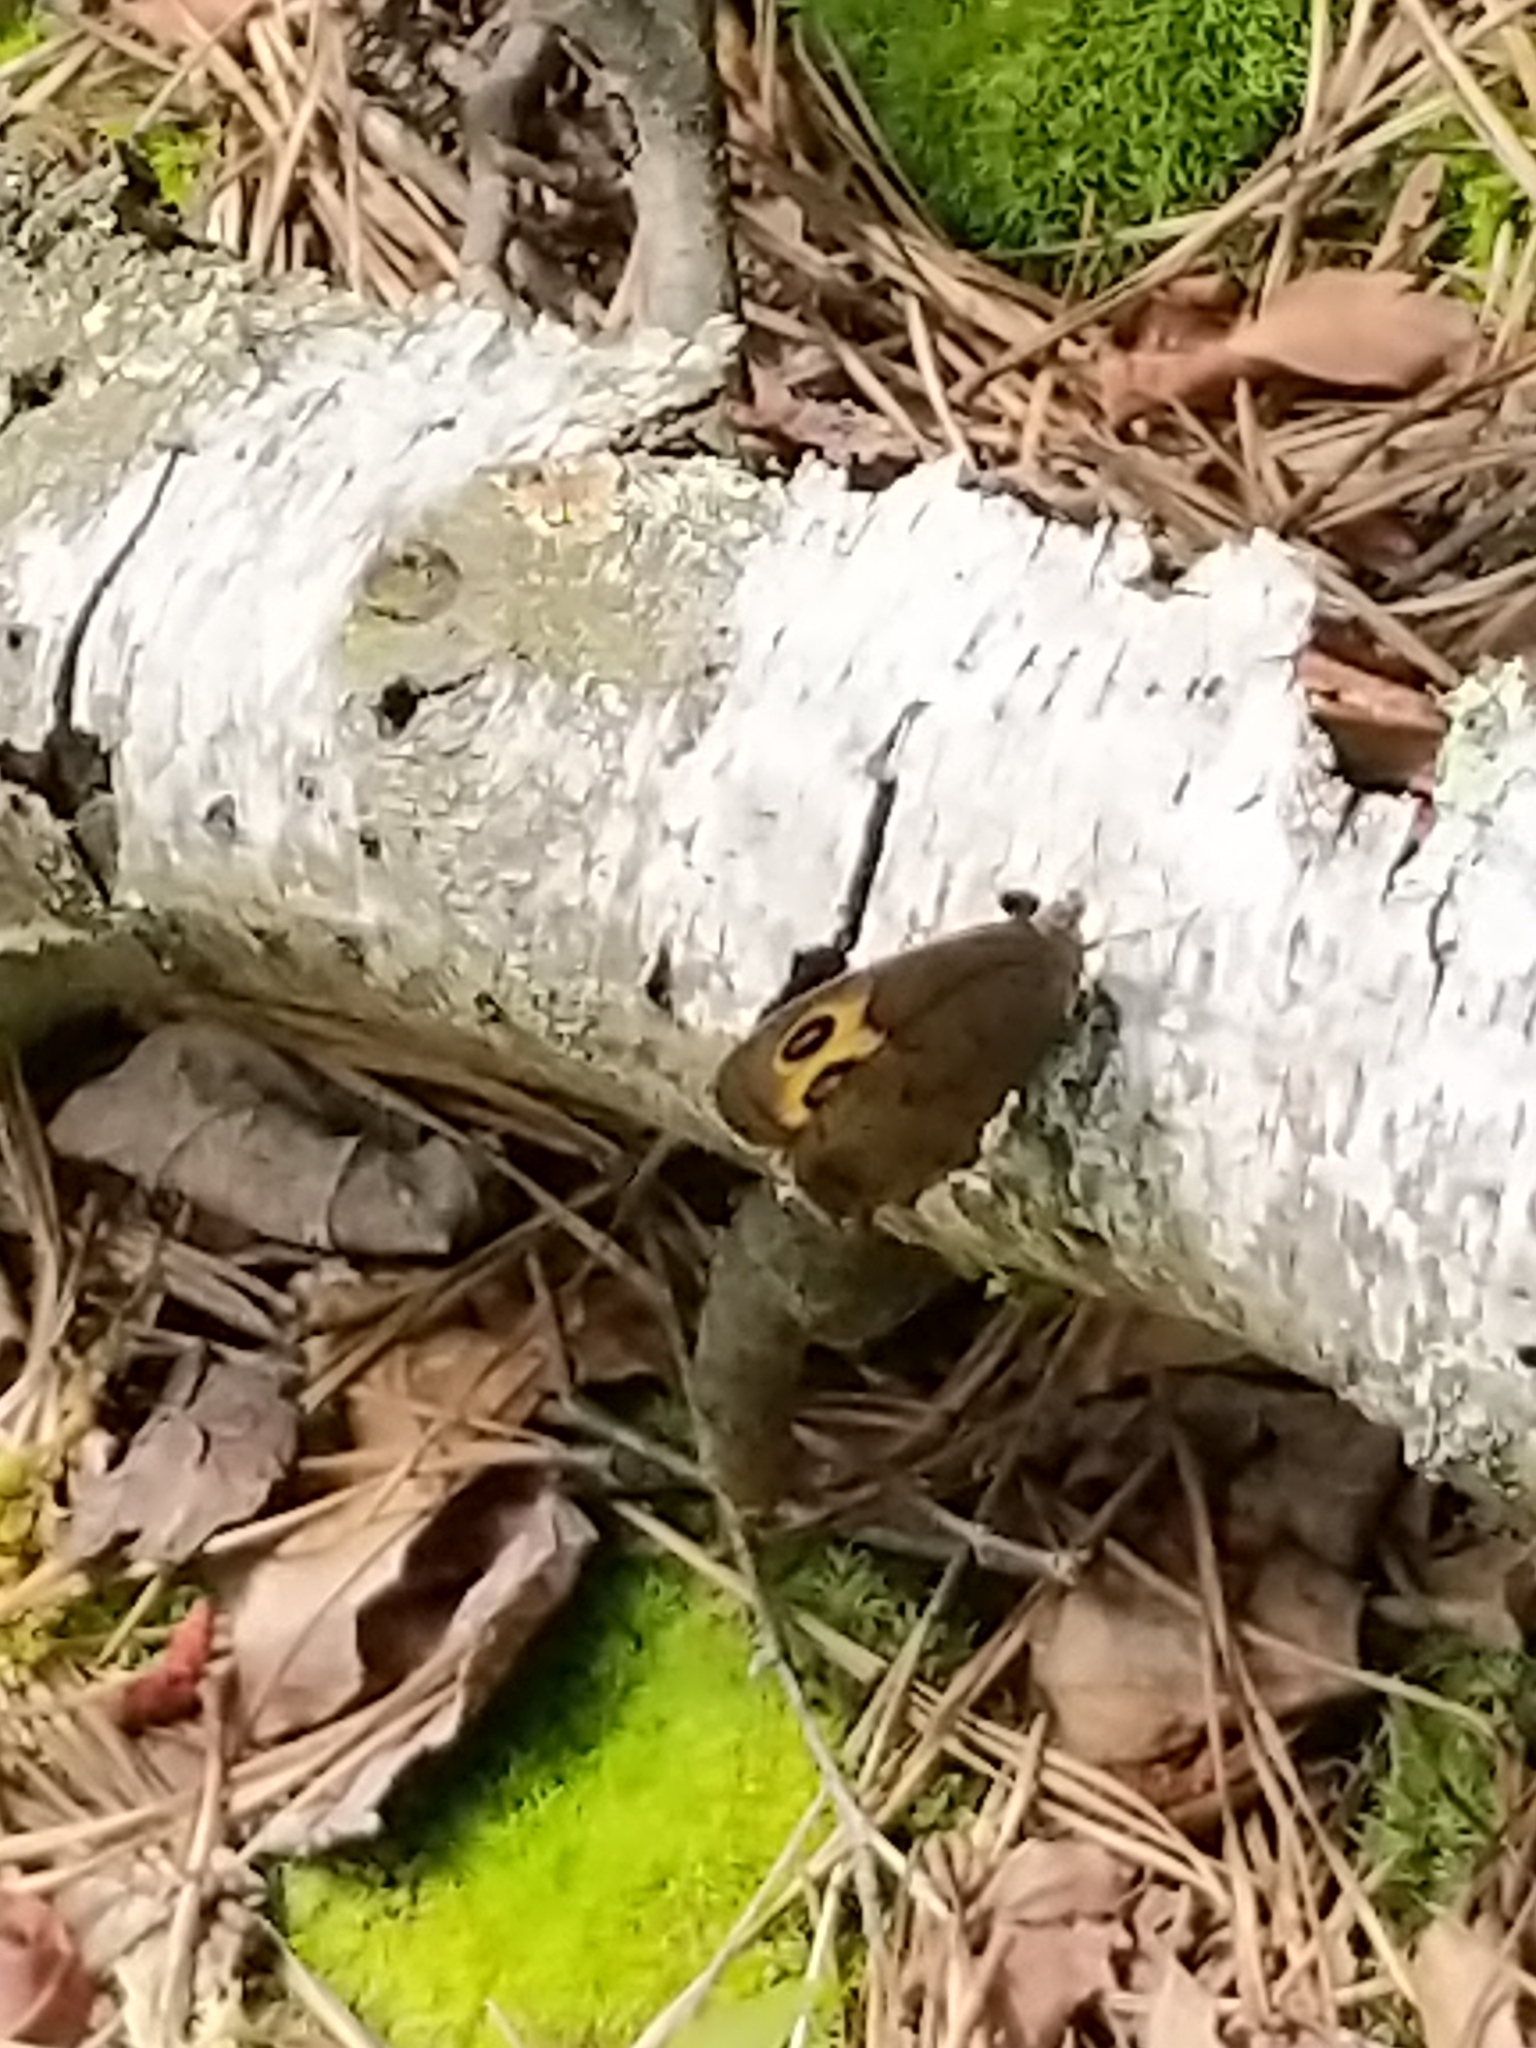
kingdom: Animalia
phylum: Arthropoda
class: Insecta
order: Lepidoptera
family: Nymphalidae
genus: Cercyonis
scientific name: Cercyonis pegala
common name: Common wood-nymph
